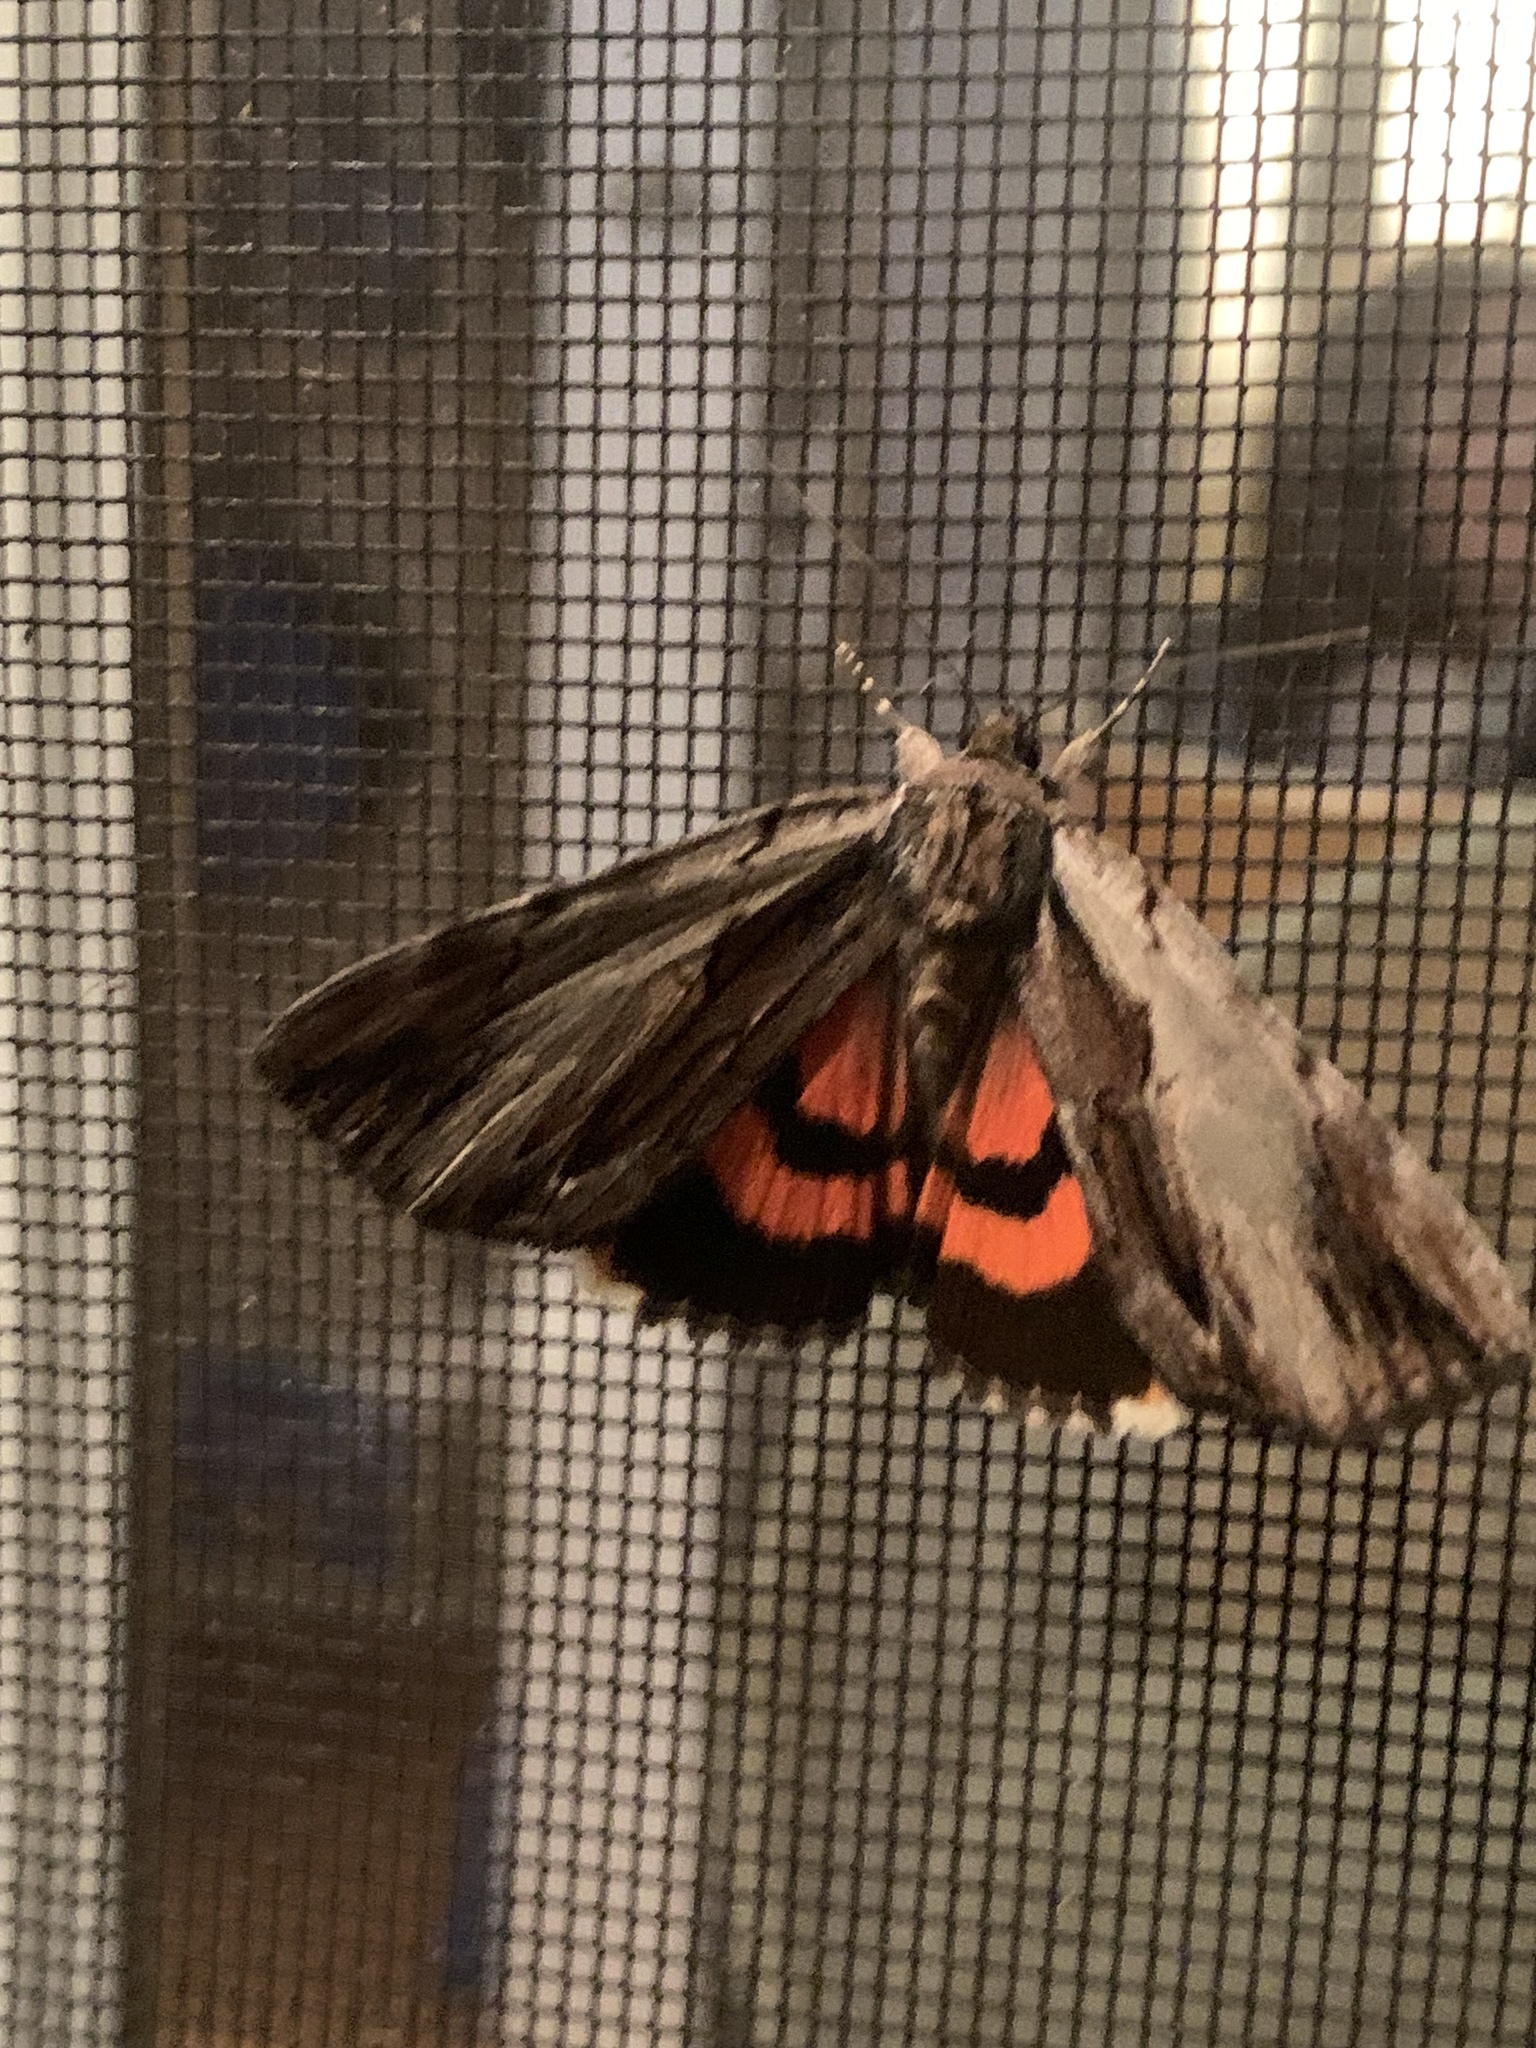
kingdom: Animalia
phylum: Arthropoda
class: Insecta
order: Lepidoptera
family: Erebidae
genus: Catocala
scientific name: Catocala ultronia
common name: Ultronia underwing
